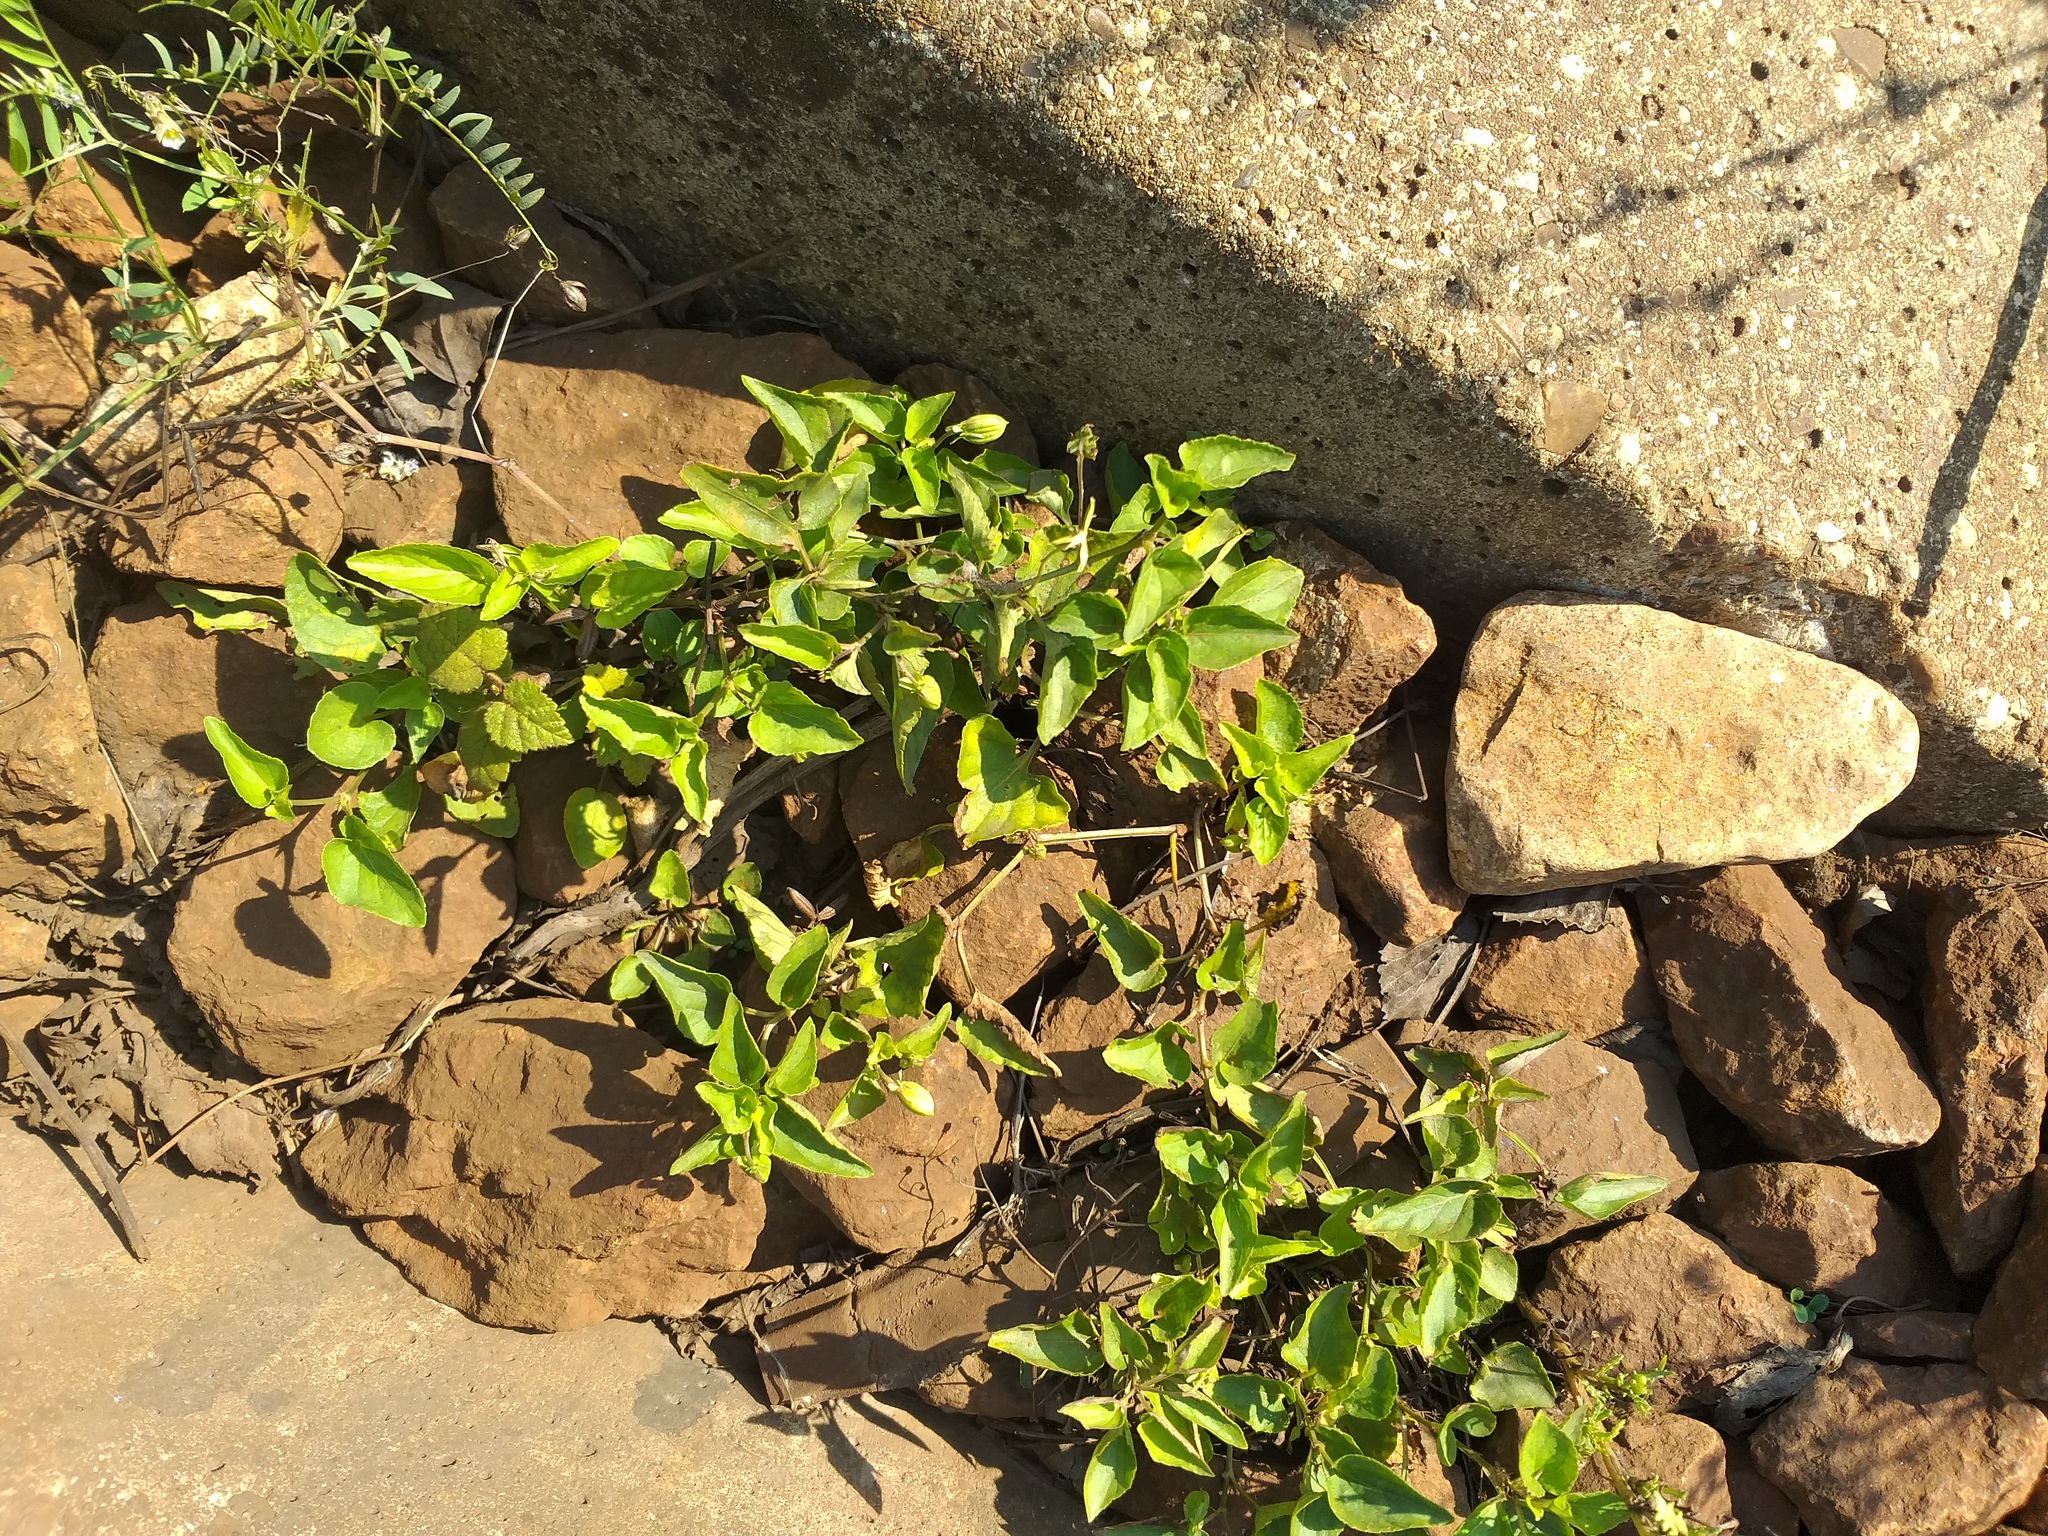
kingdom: Plantae
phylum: Tracheophyta
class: Magnoliopsida
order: Malpighiales
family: Violaceae
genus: Viola
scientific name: Viola canina
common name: Heath dog-violet
